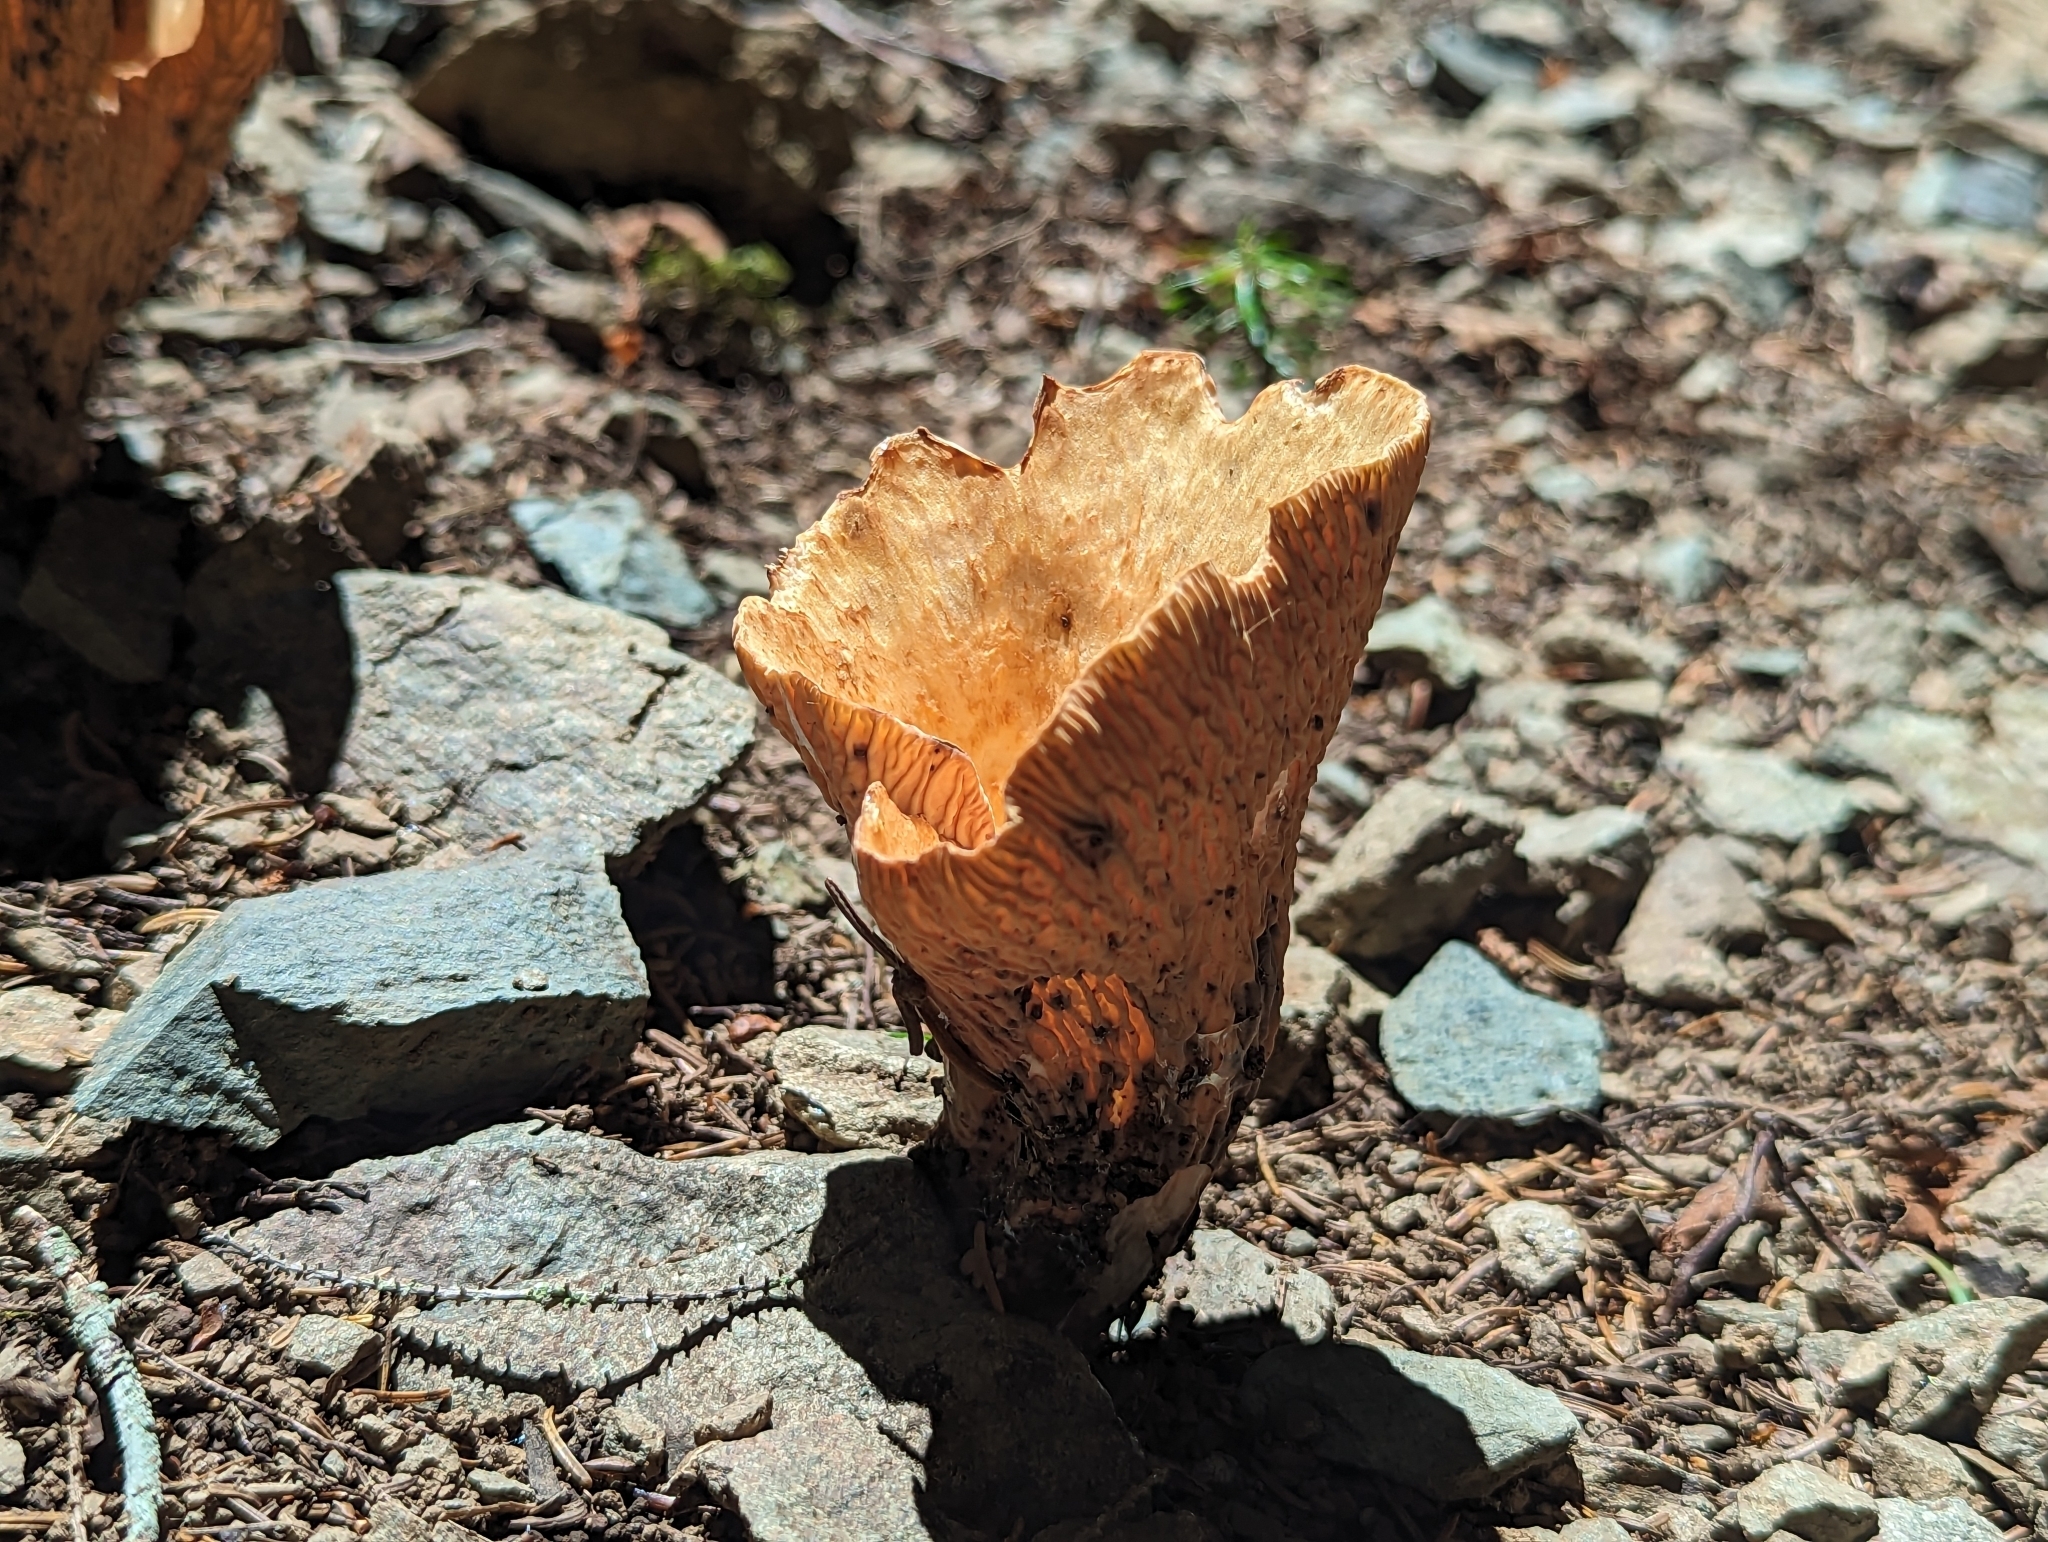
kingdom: Fungi
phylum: Basidiomycota
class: Agaricomycetes
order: Gomphales
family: Gomphaceae
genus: Turbinellus
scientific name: Turbinellus floccosus
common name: Scaly chanterelle
